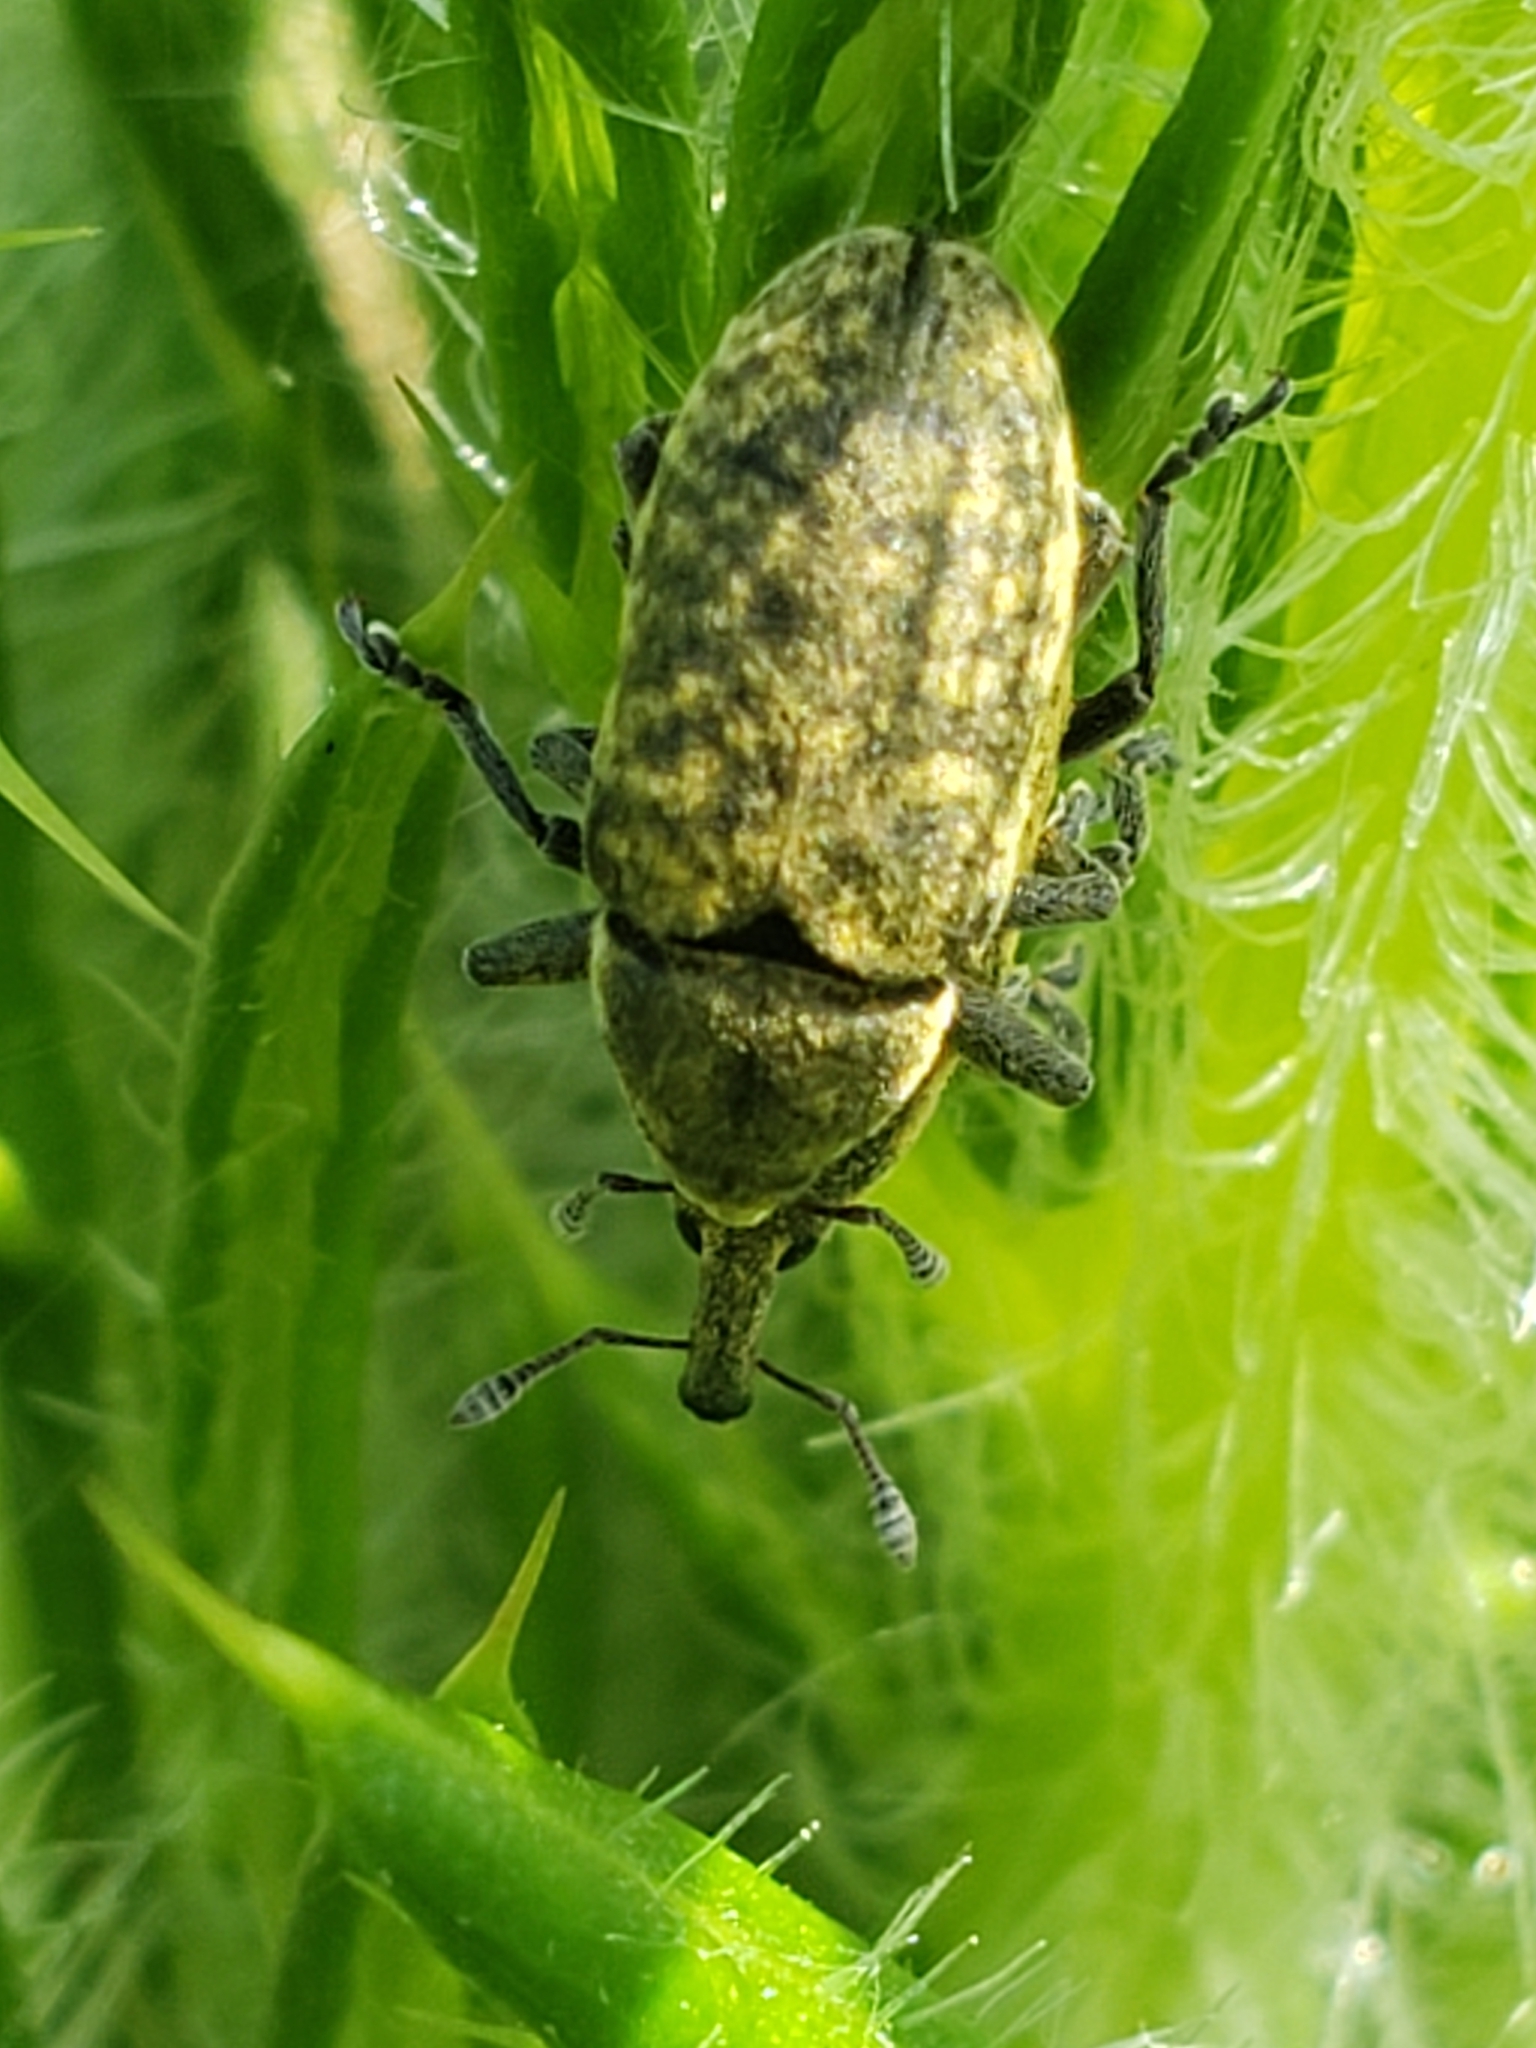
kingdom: Animalia
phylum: Arthropoda
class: Insecta
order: Coleoptera
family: Curculionidae
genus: Larinus
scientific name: Larinus carlinae
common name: Weevil
